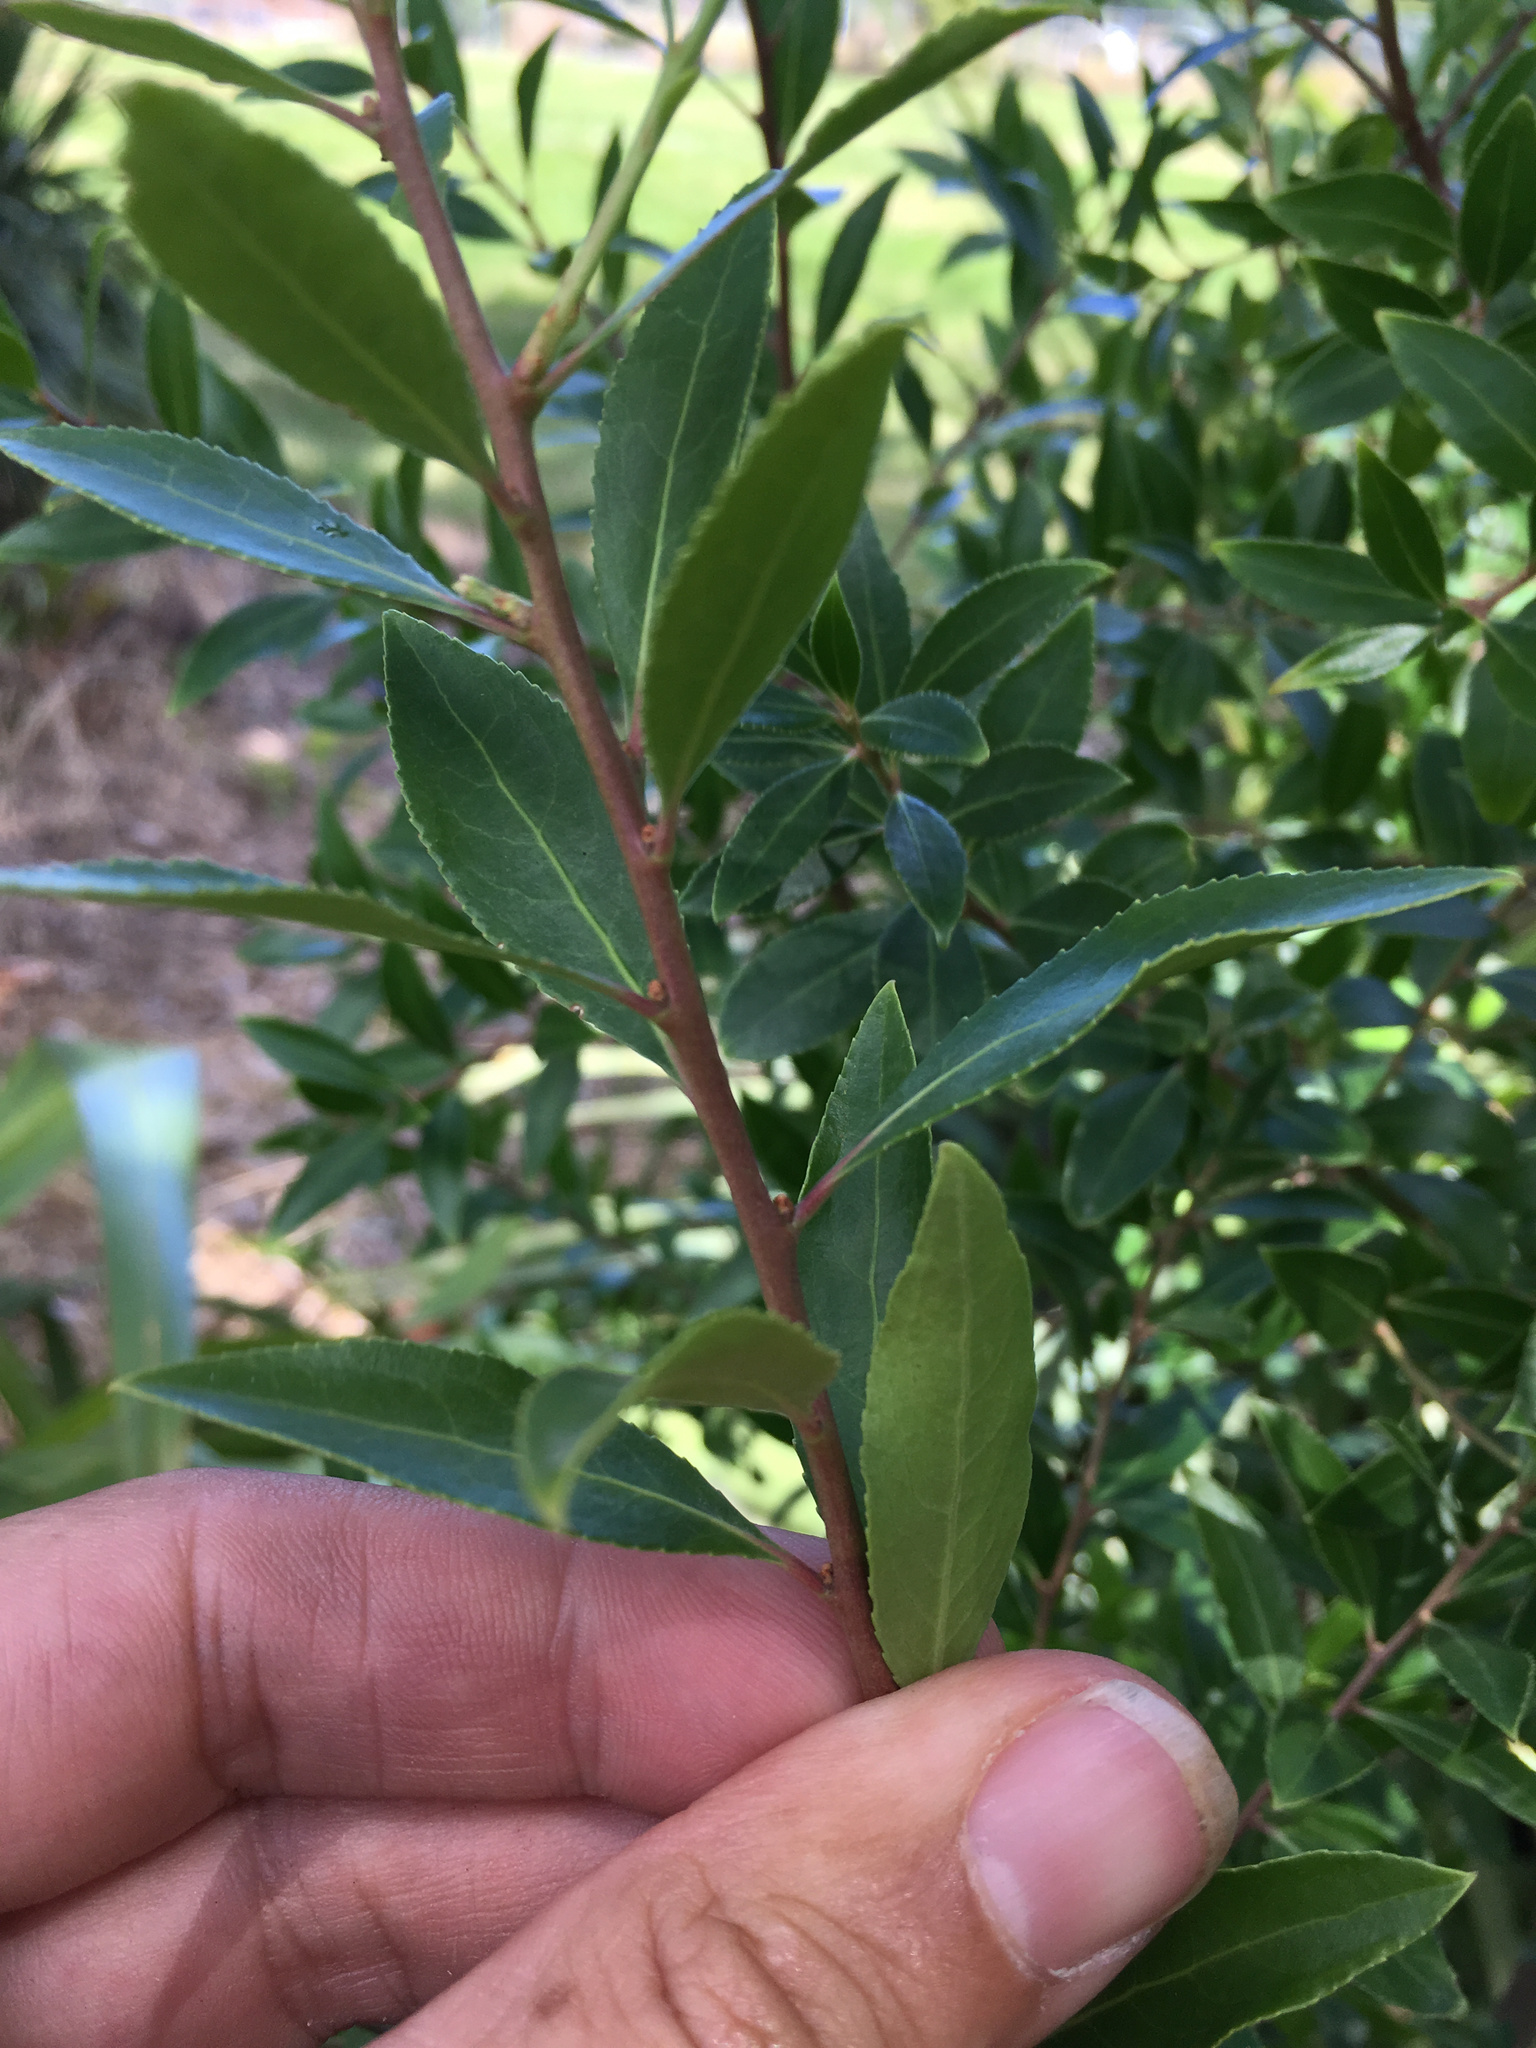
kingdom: Plantae
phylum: Tracheophyta
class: Magnoliopsida
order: Celastrales
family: Celastraceae
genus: Maytenus
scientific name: Maytenus boaria
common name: Mayten
